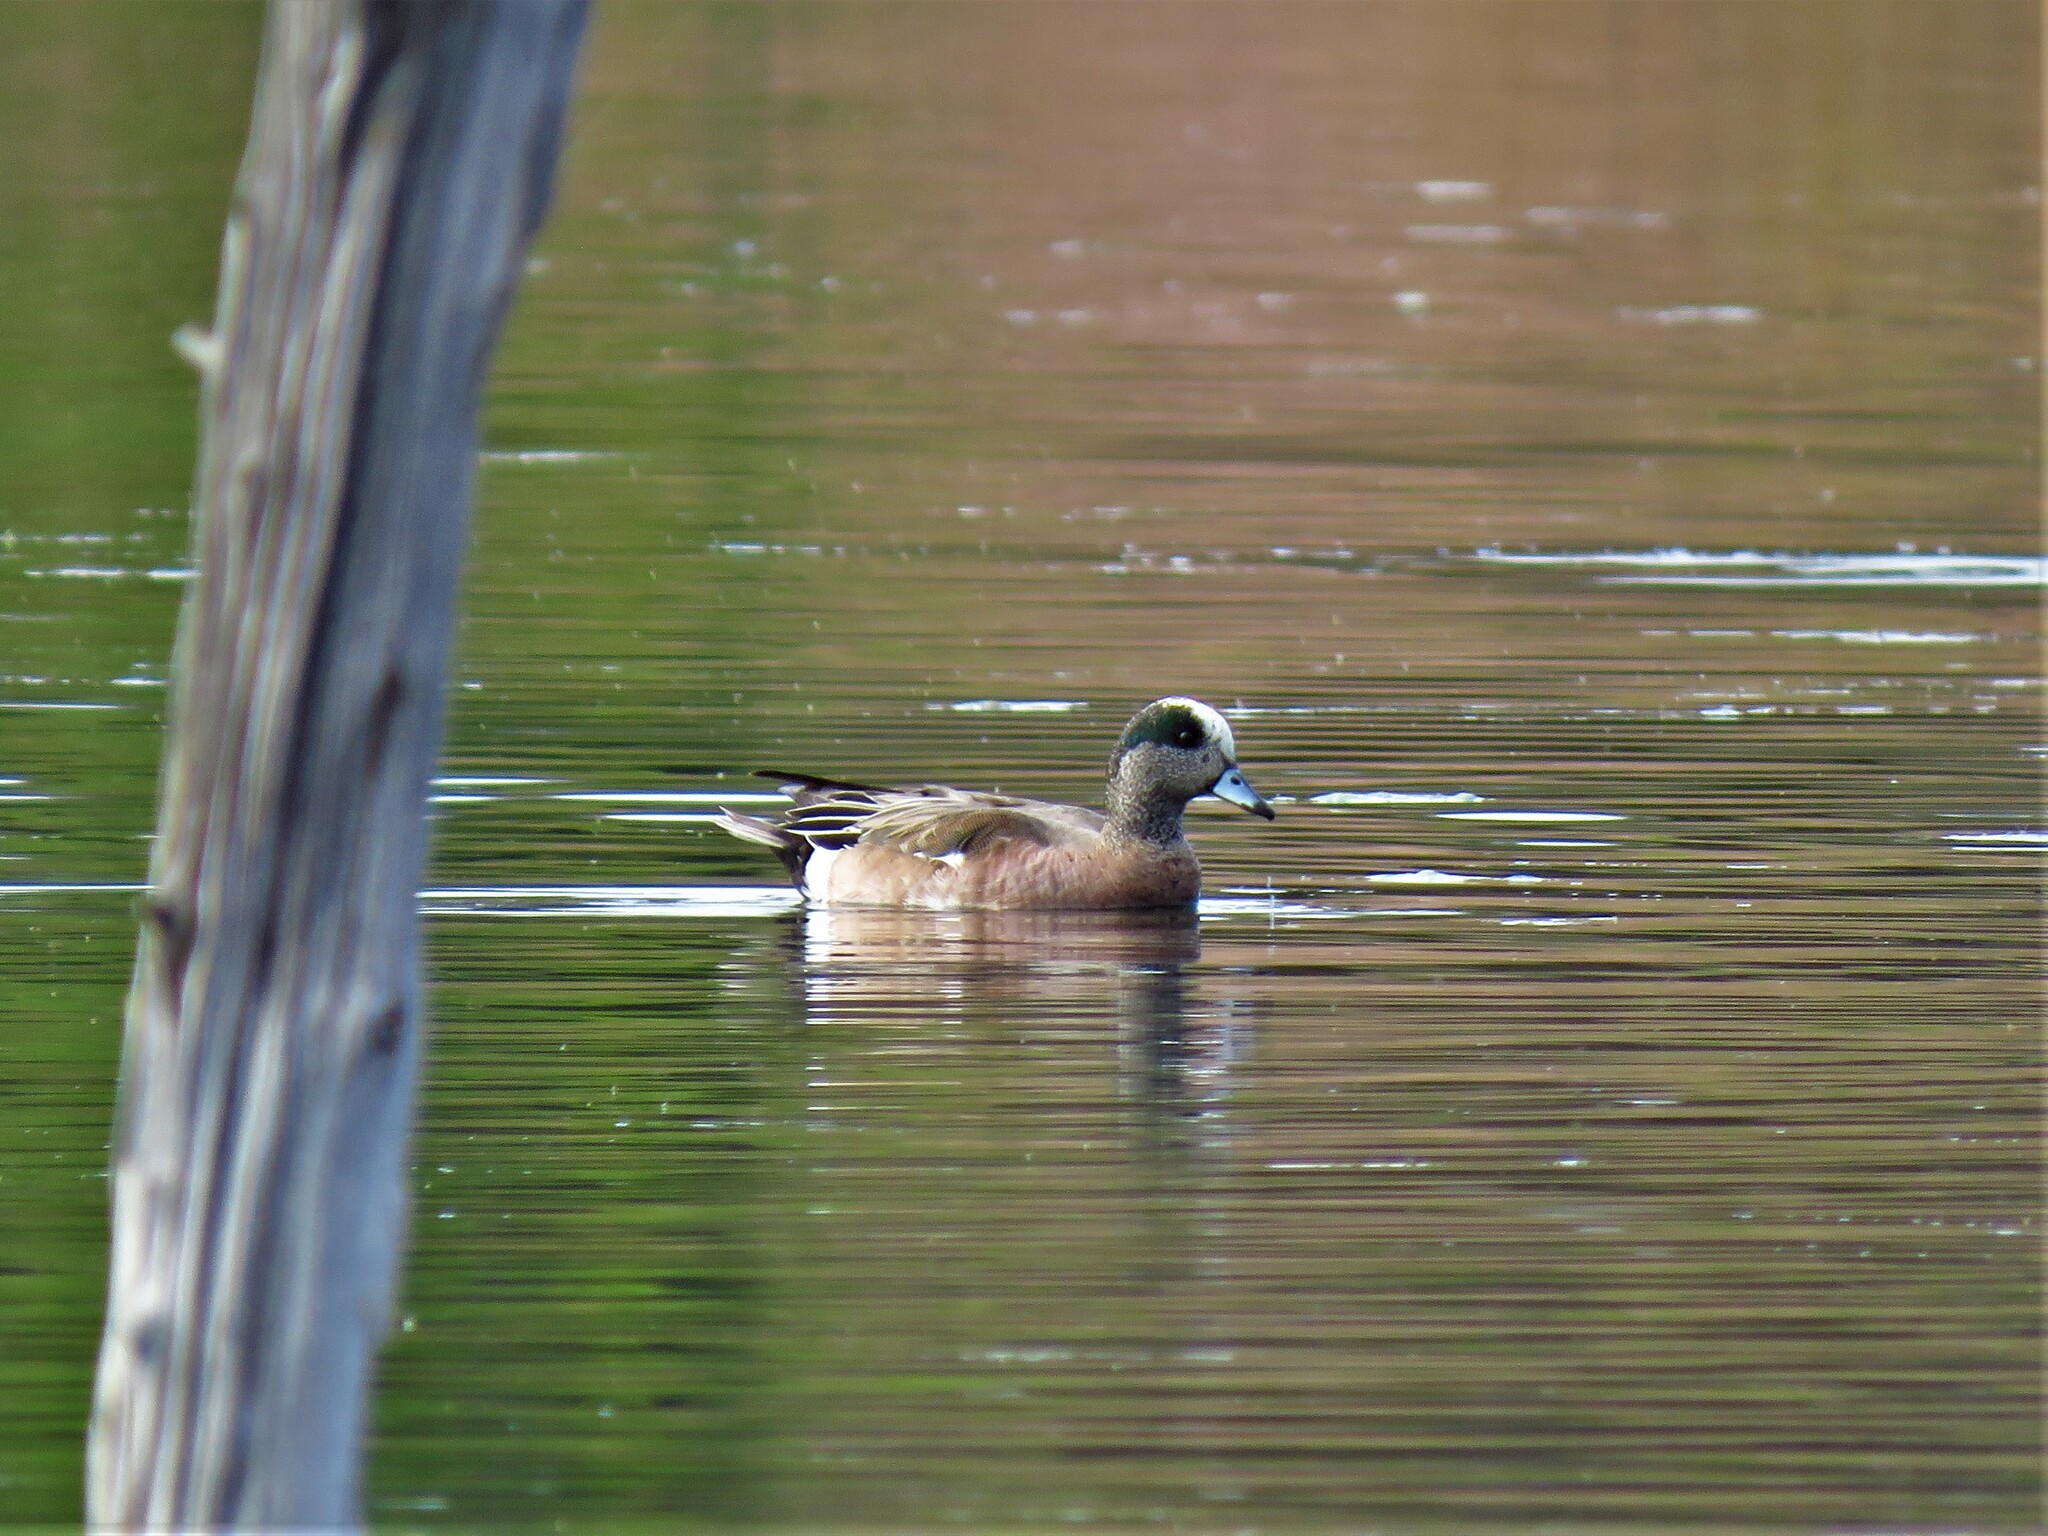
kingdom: Animalia
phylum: Chordata
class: Aves
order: Anseriformes
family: Anatidae
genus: Mareca
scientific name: Mareca americana
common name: American wigeon
